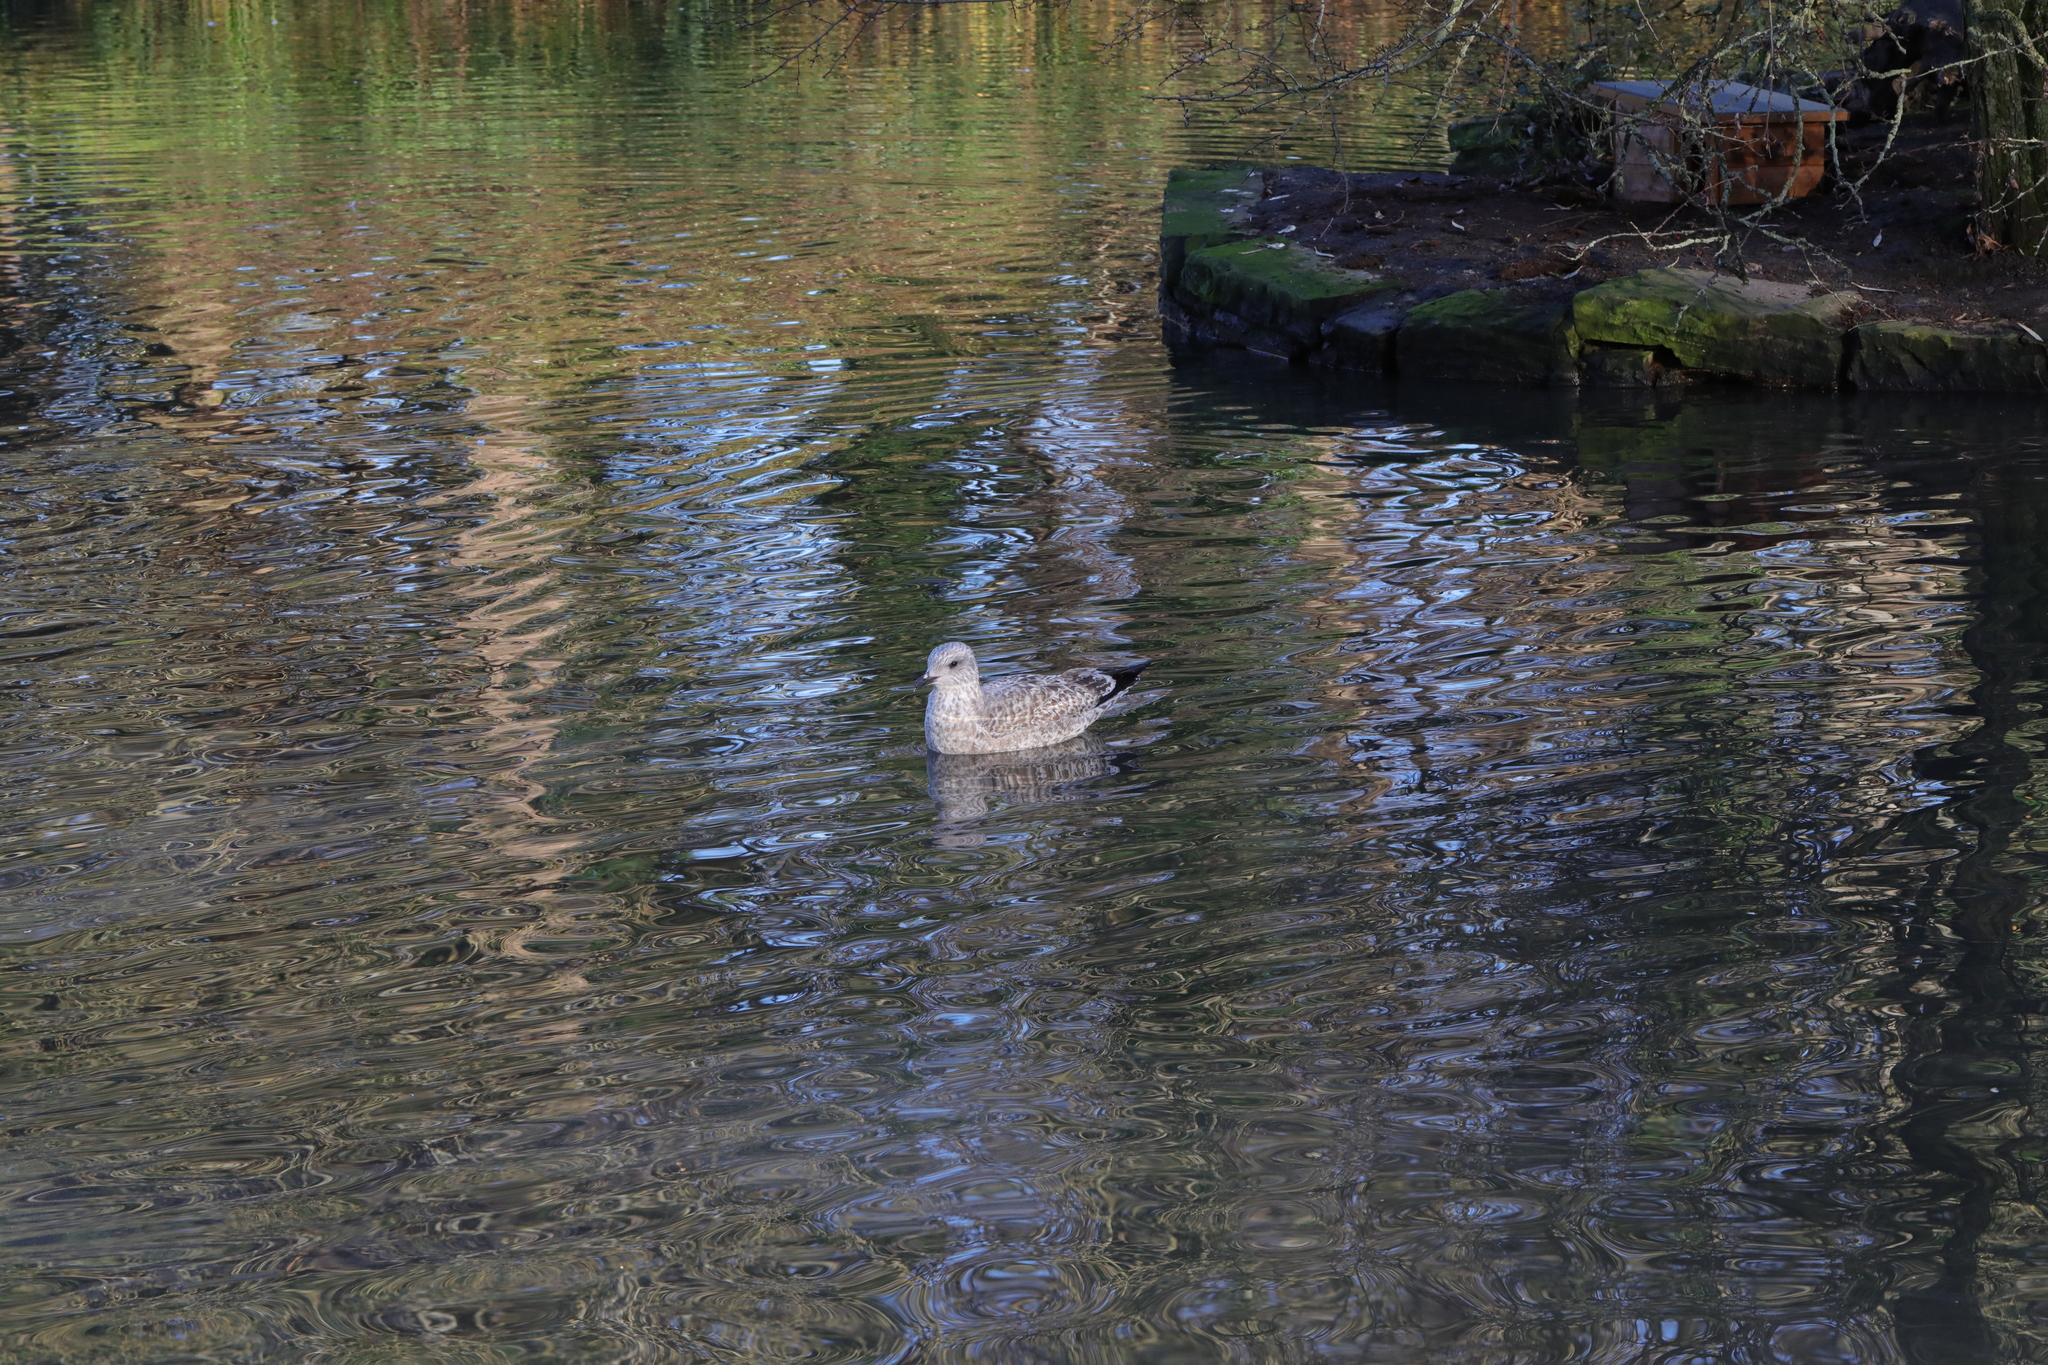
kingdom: Animalia
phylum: Chordata
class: Aves
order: Charadriiformes
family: Laridae
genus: Larus
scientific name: Larus argentatus
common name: Herring gull
